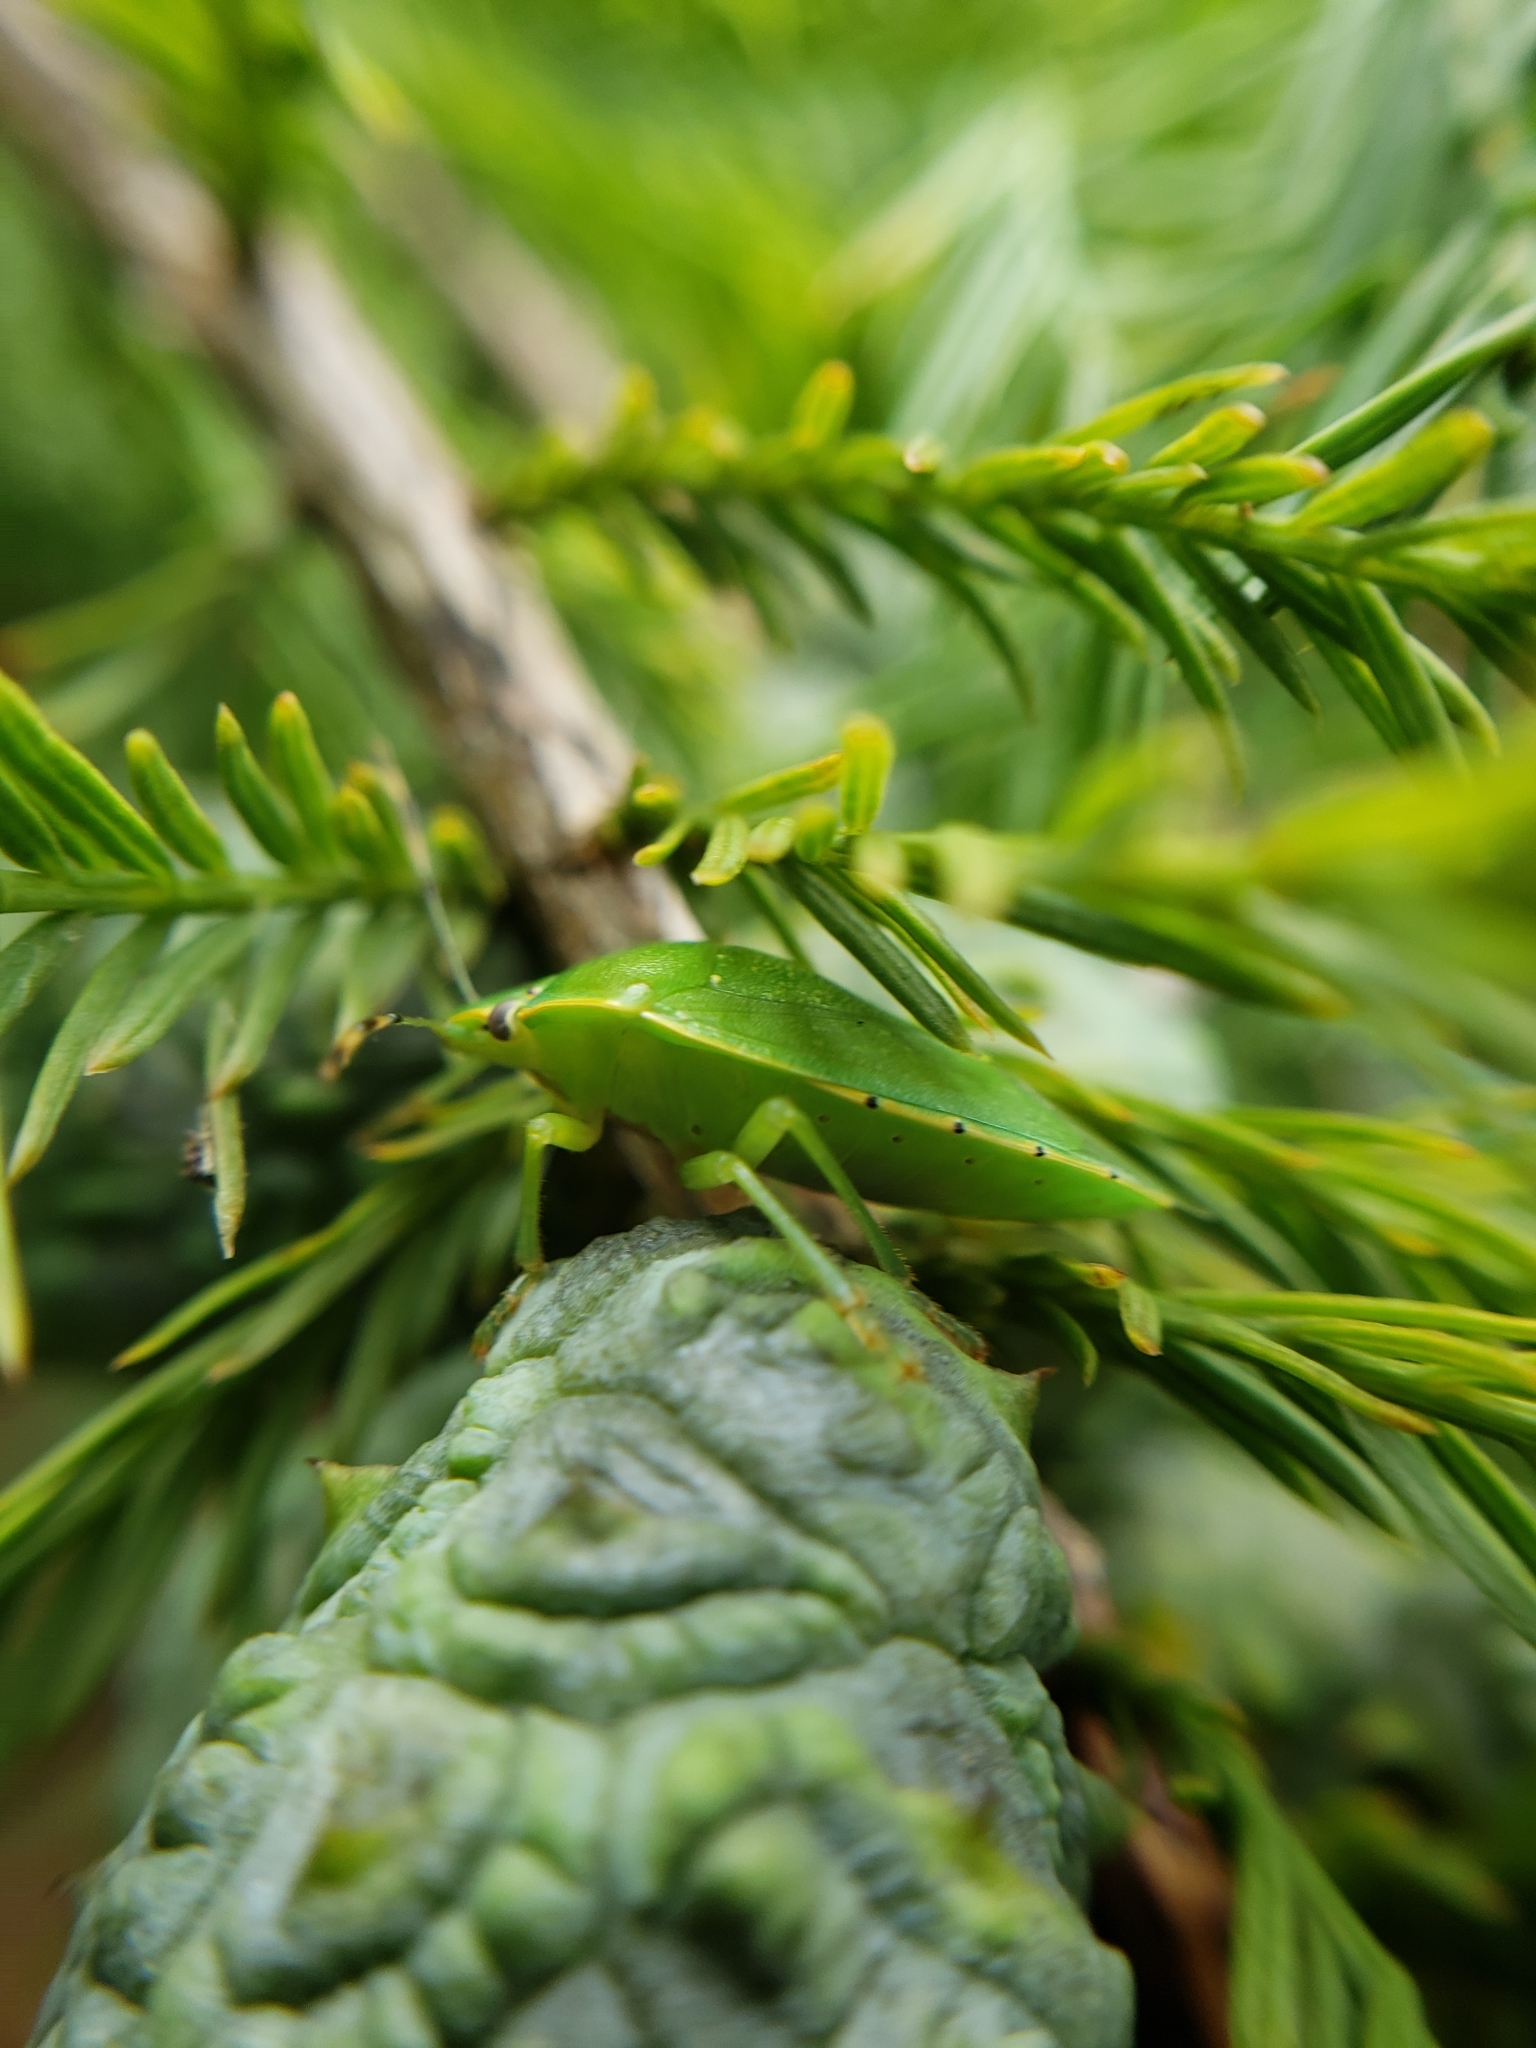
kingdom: Animalia
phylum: Arthropoda
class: Insecta
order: Hemiptera
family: Pentatomidae
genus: Chinavia
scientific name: Chinavia hilaris
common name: Green stink bug
